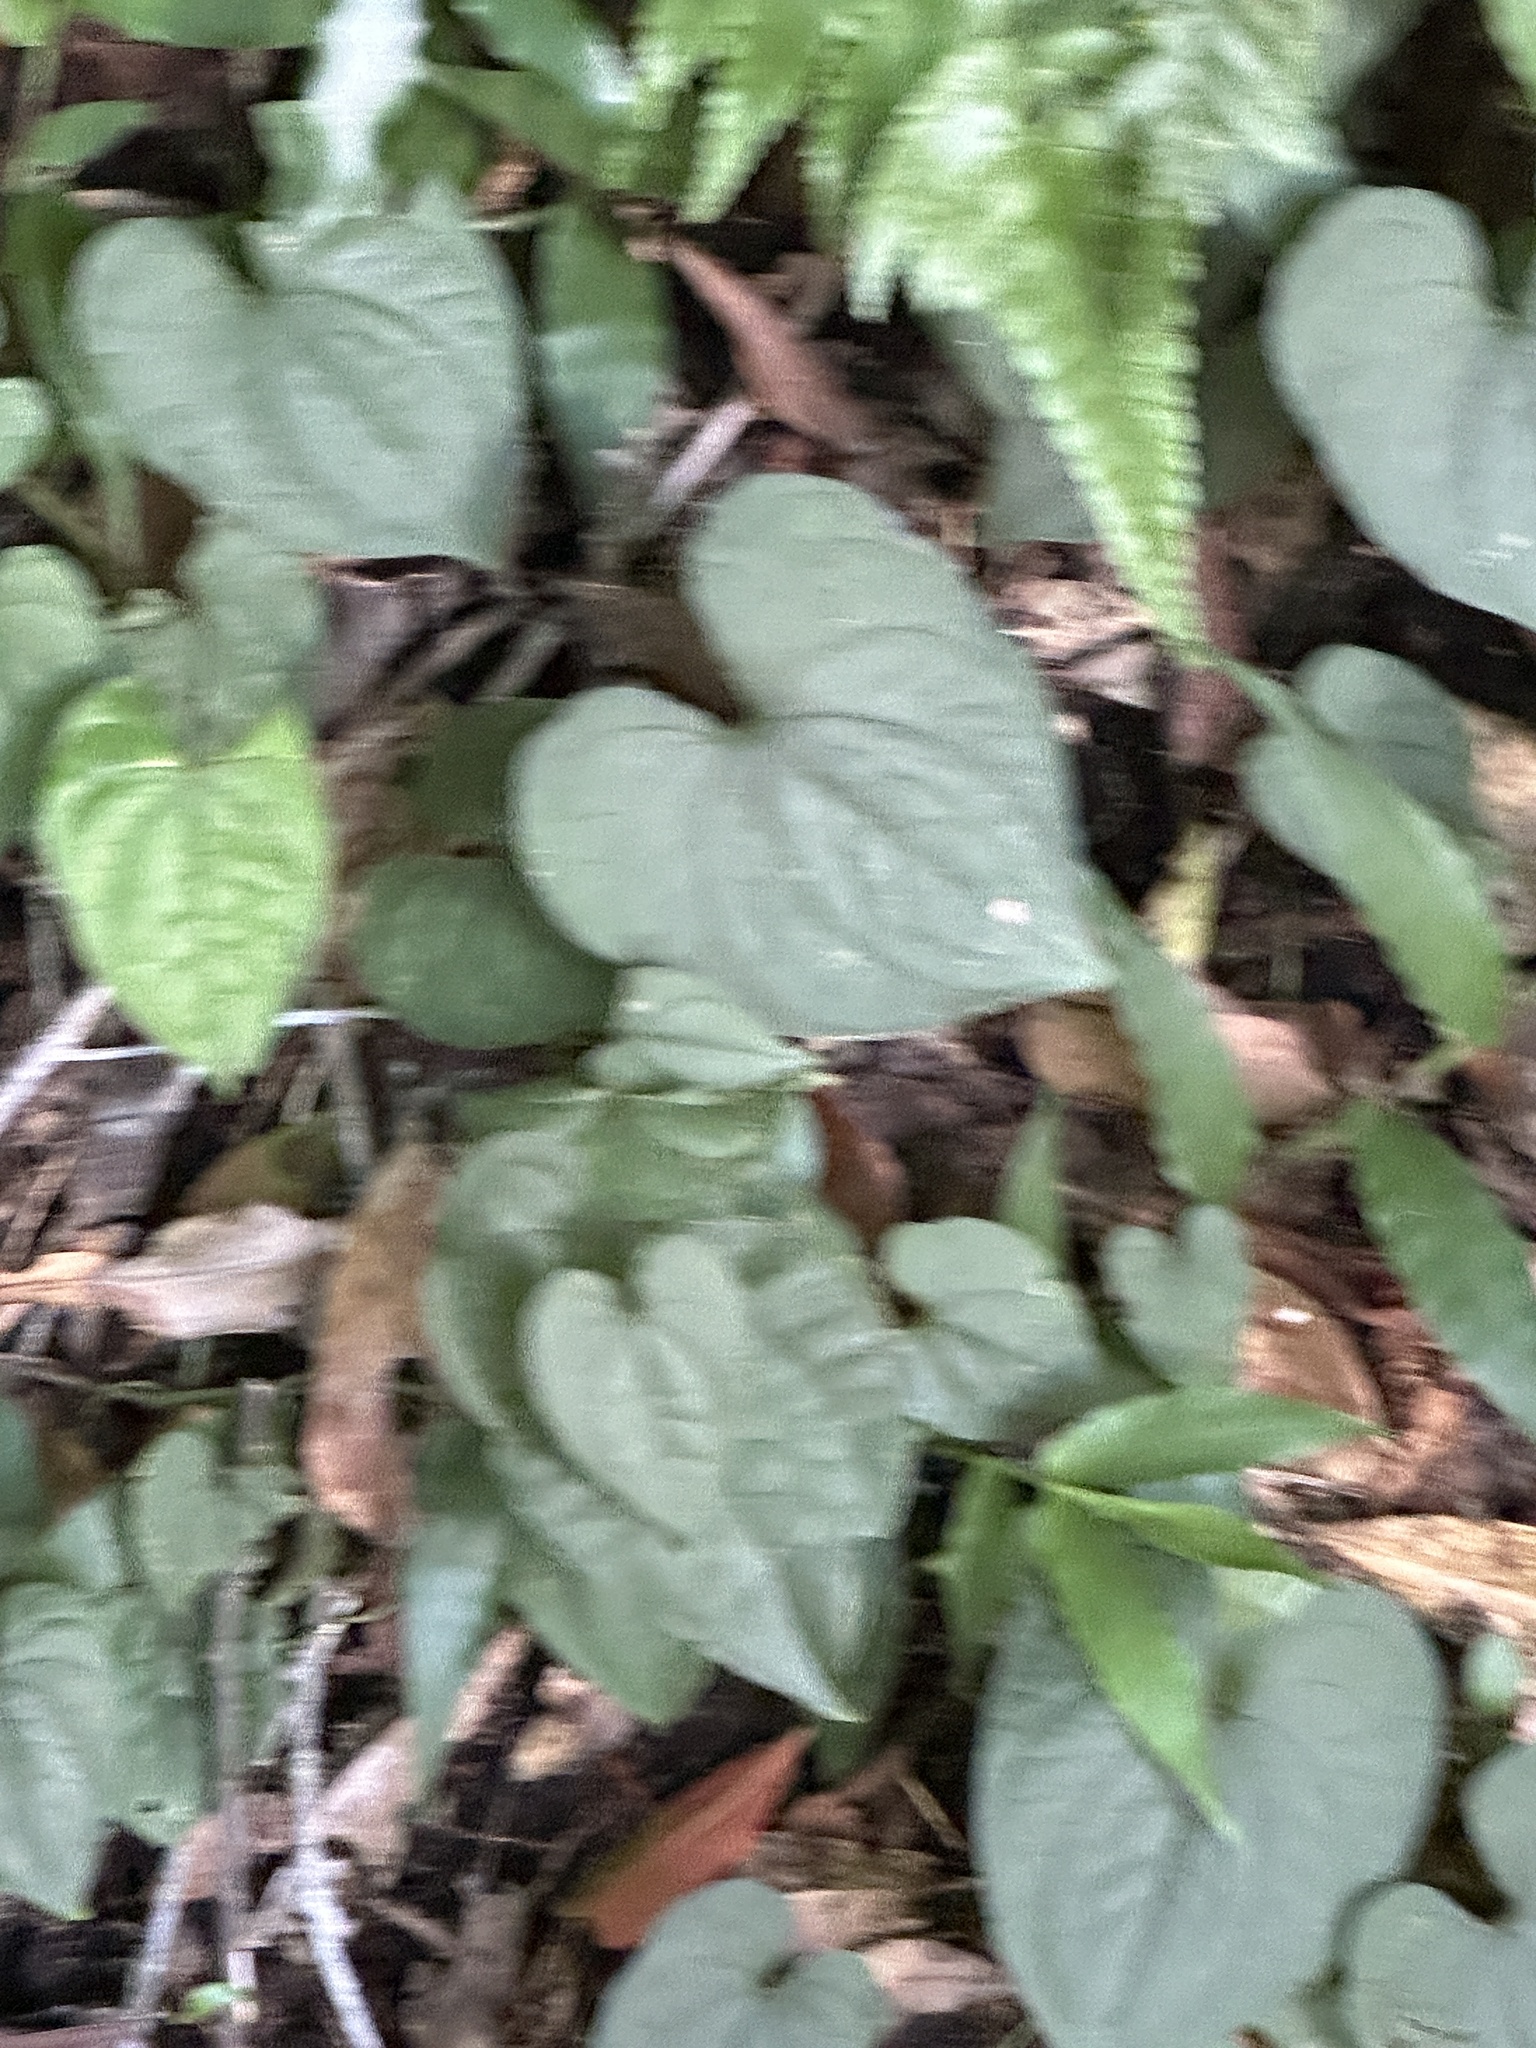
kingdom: Plantae
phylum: Tracheophyta
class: Liliopsida
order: Dioscoreales
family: Dioscoreaceae
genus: Dioscorea
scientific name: Dioscorea bulbifera
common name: Air yam
